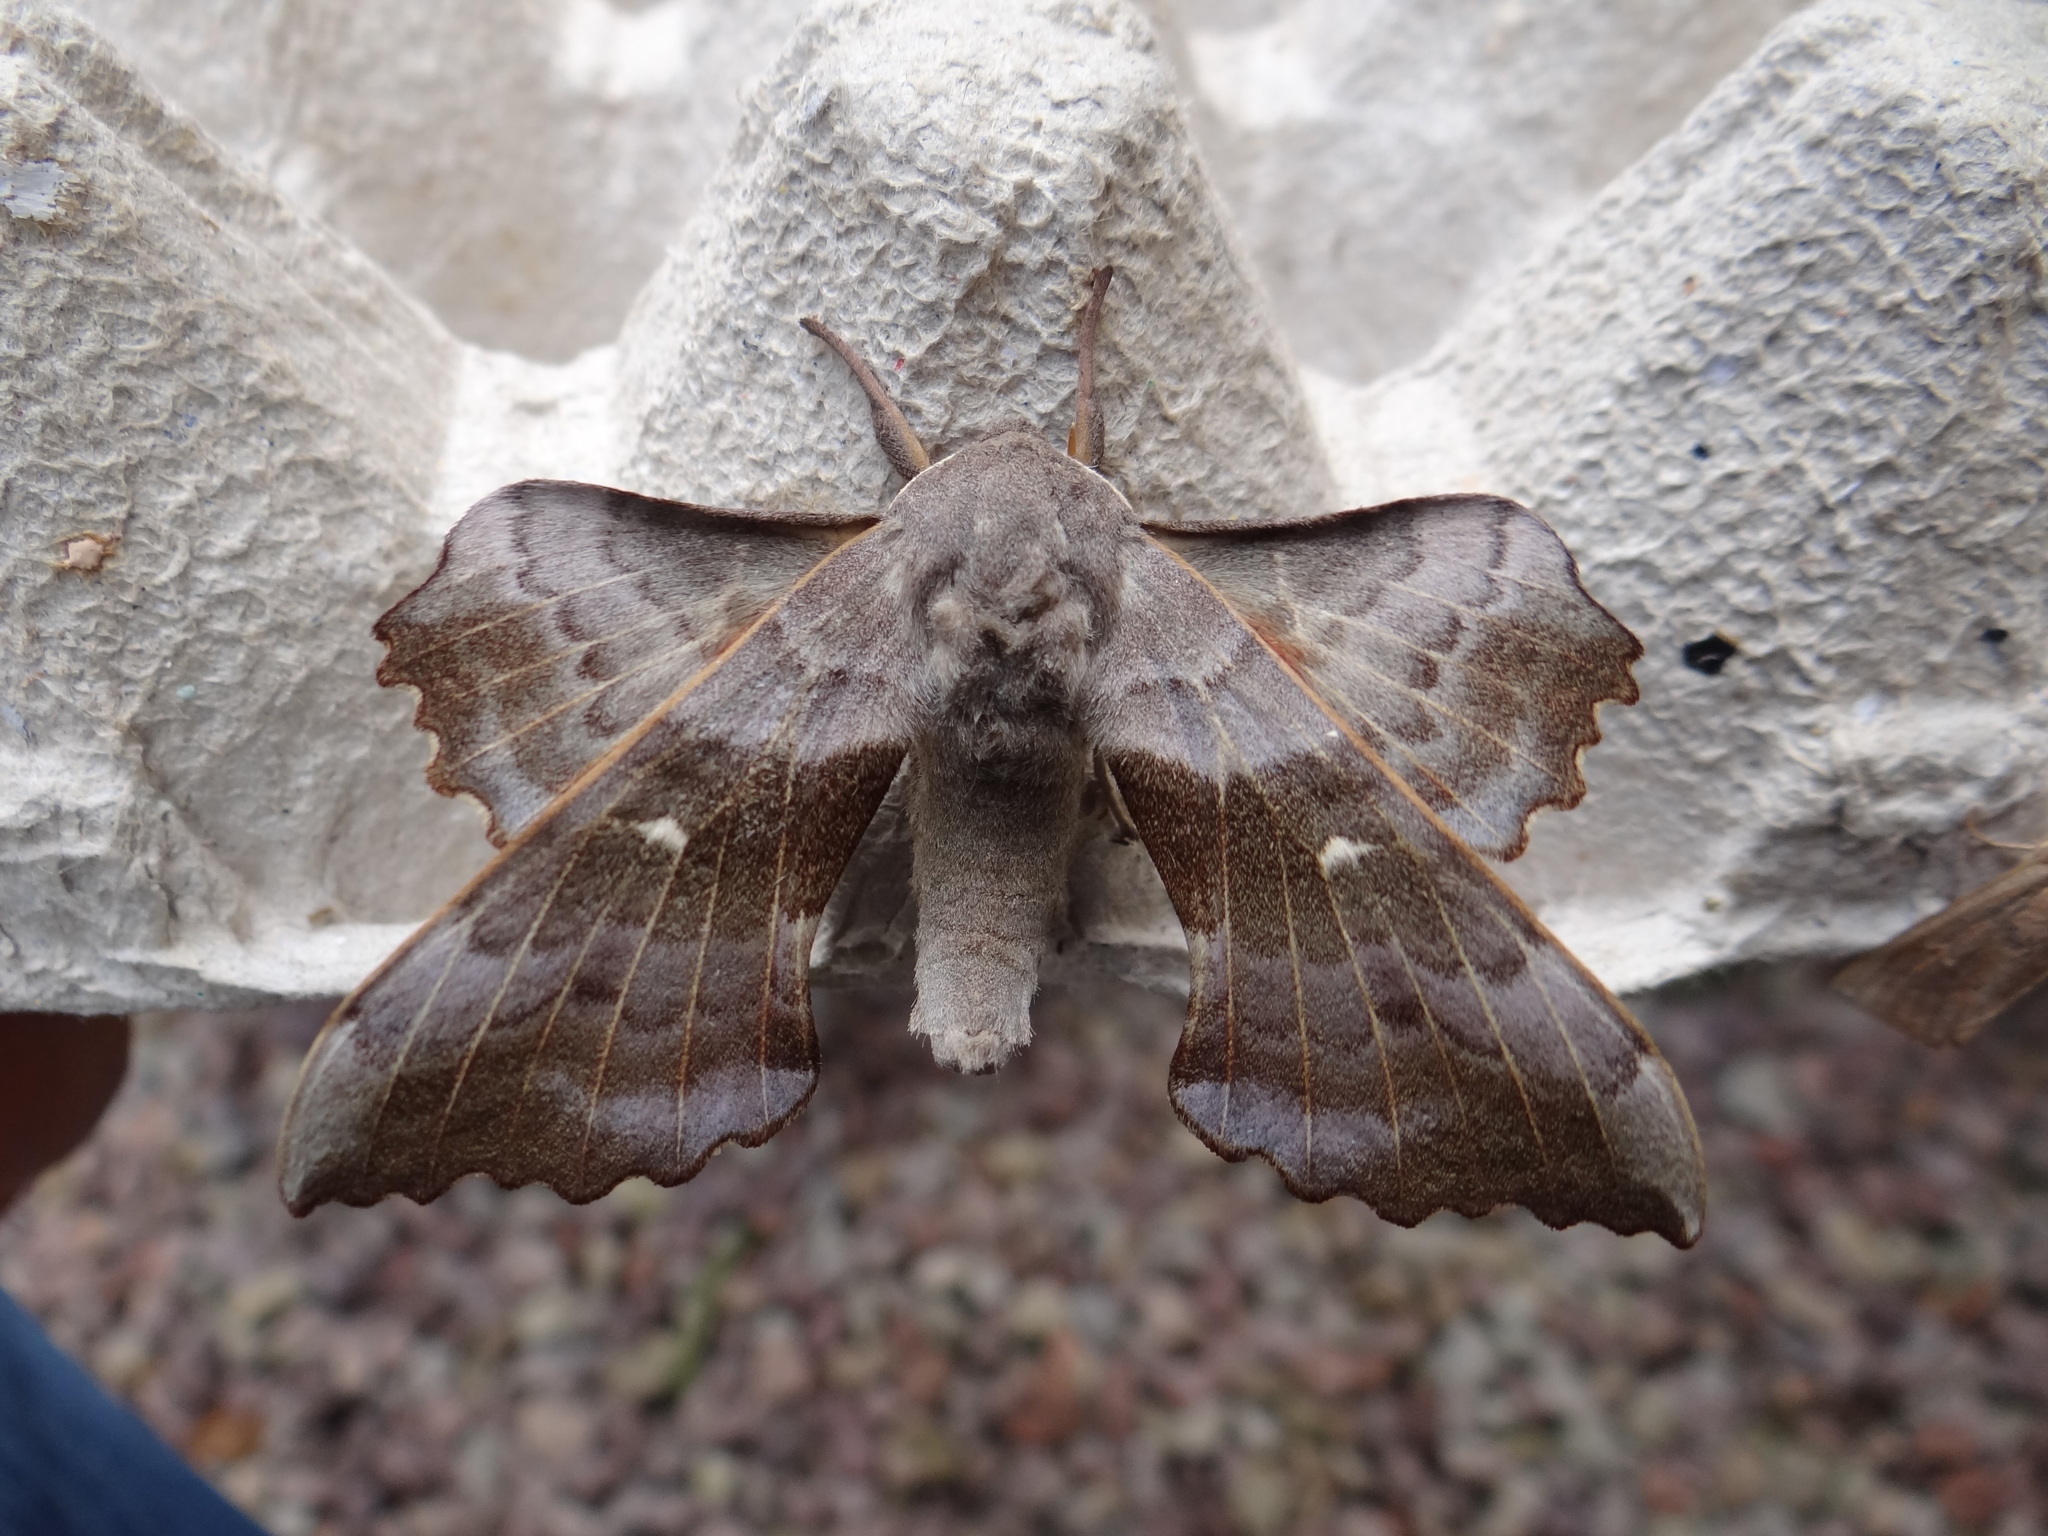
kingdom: Animalia
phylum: Arthropoda
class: Insecta
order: Lepidoptera
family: Sphingidae
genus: Laothoe
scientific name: Laothoe populi
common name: Poplar hawk-moth
